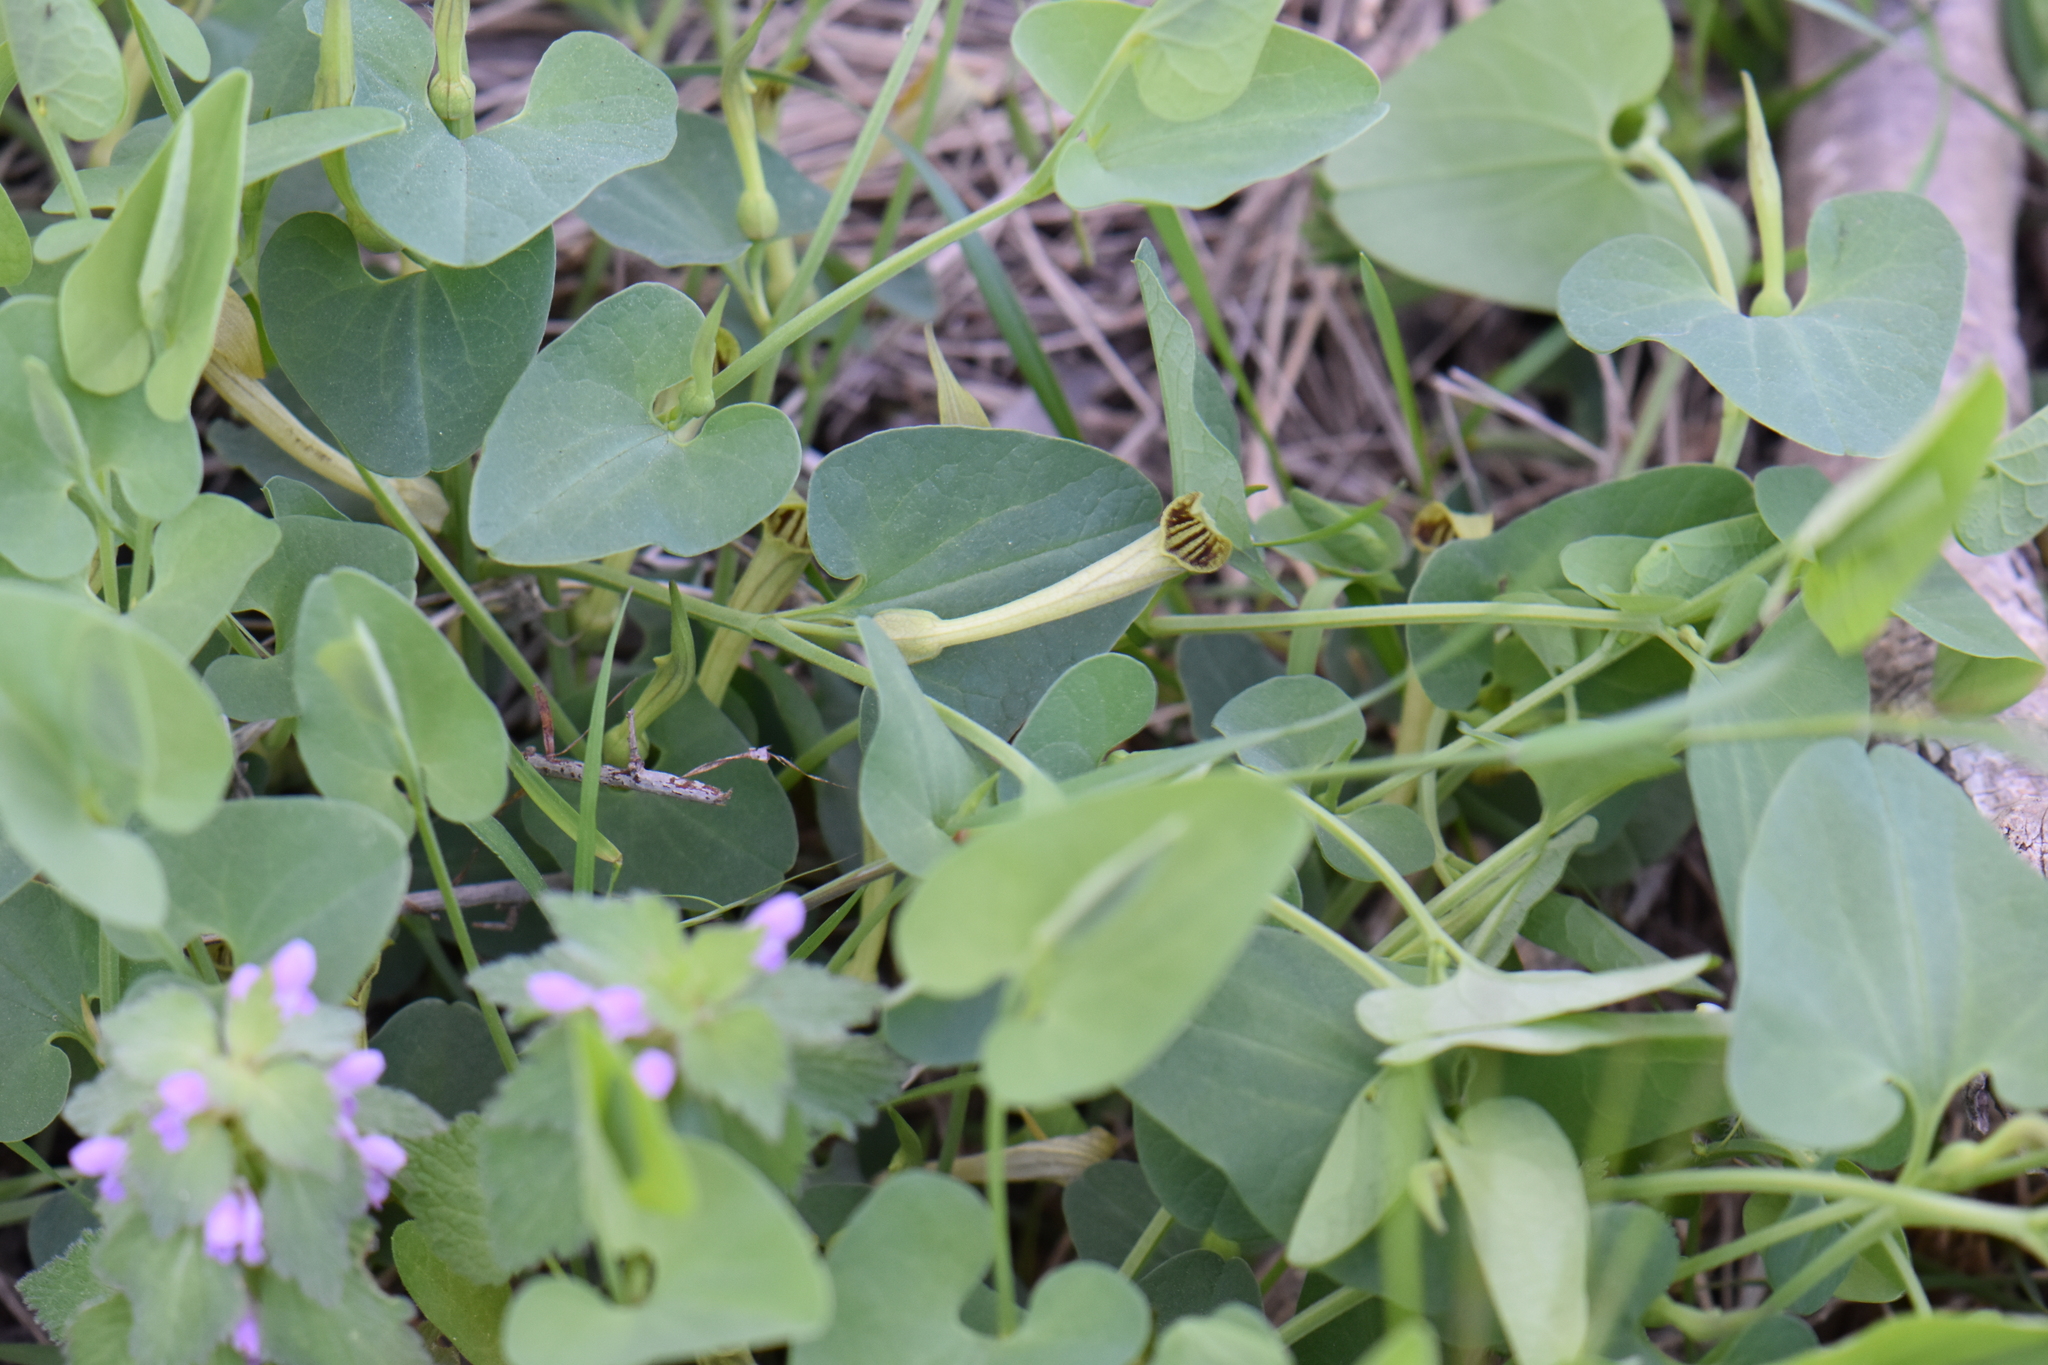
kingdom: Plantae
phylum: Tracheophyta
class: Magnoliopsida
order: Piperales
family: Aristolochiaceae
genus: Aristolochia
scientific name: Aristolochia paucinervis
